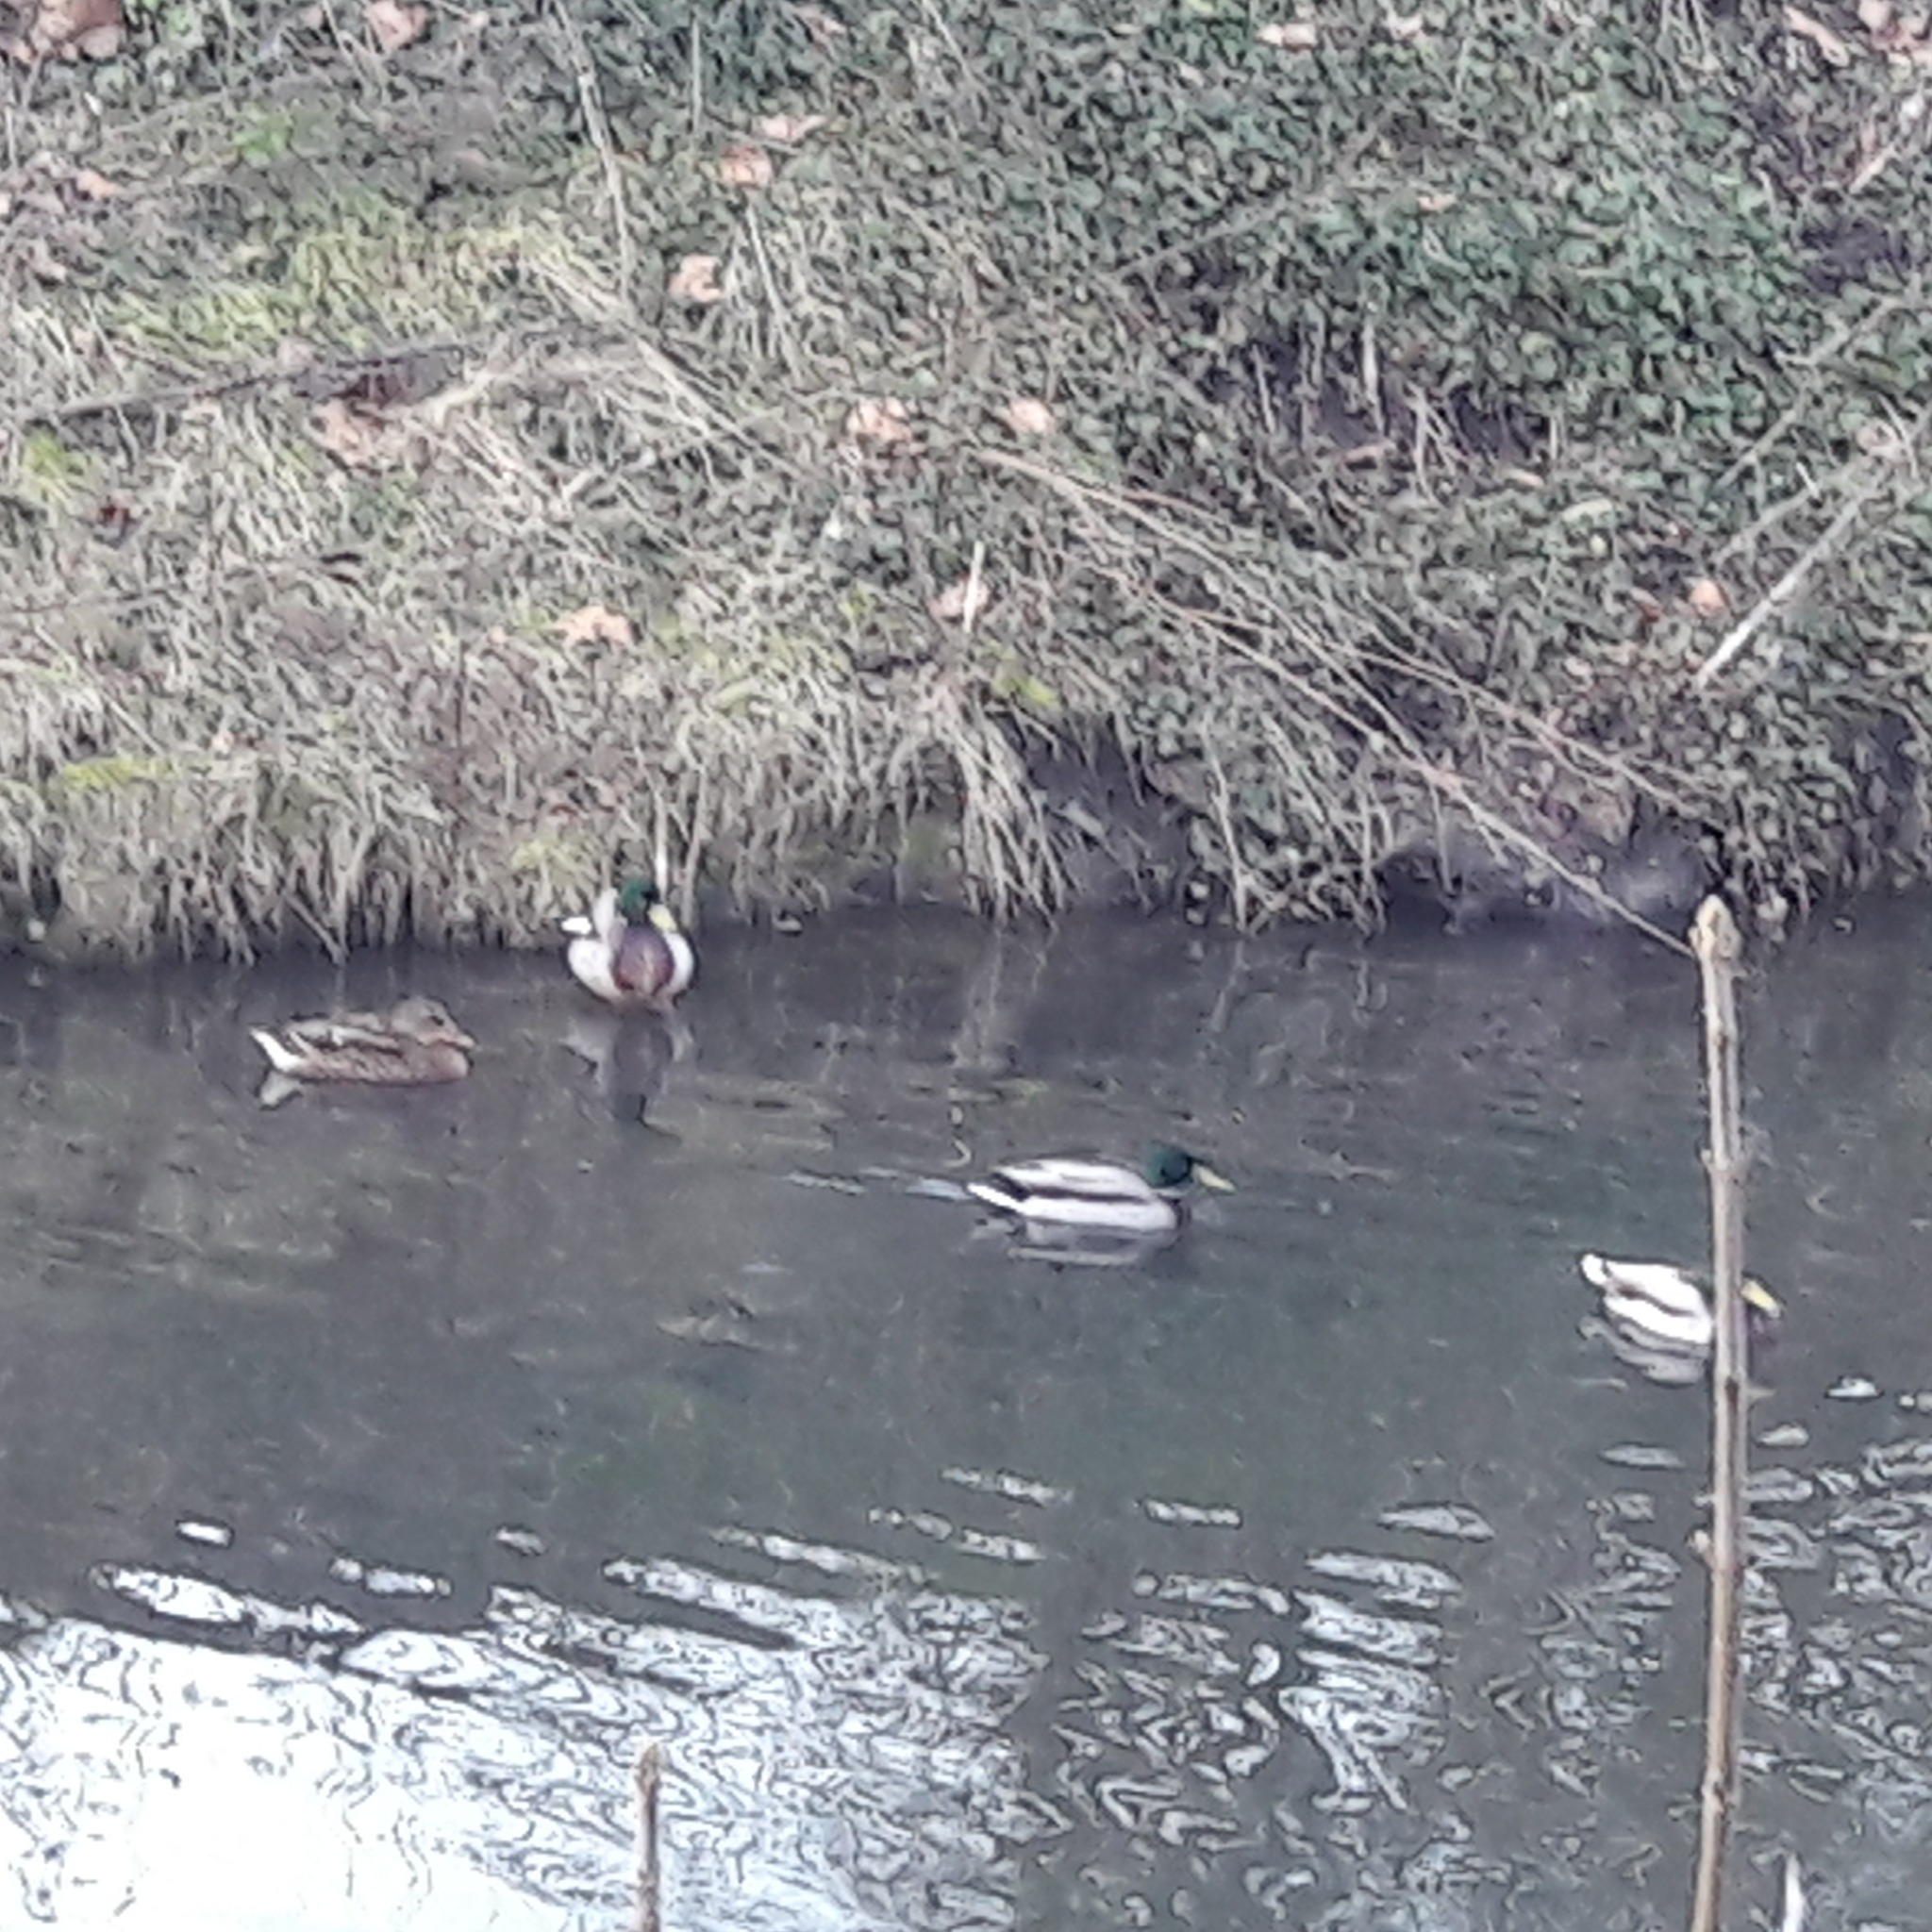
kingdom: Animalia
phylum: Chordata
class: Aves
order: Anseriformes
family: Anatidae
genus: Anas
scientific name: Anas platyrhynchos
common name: Mallard
